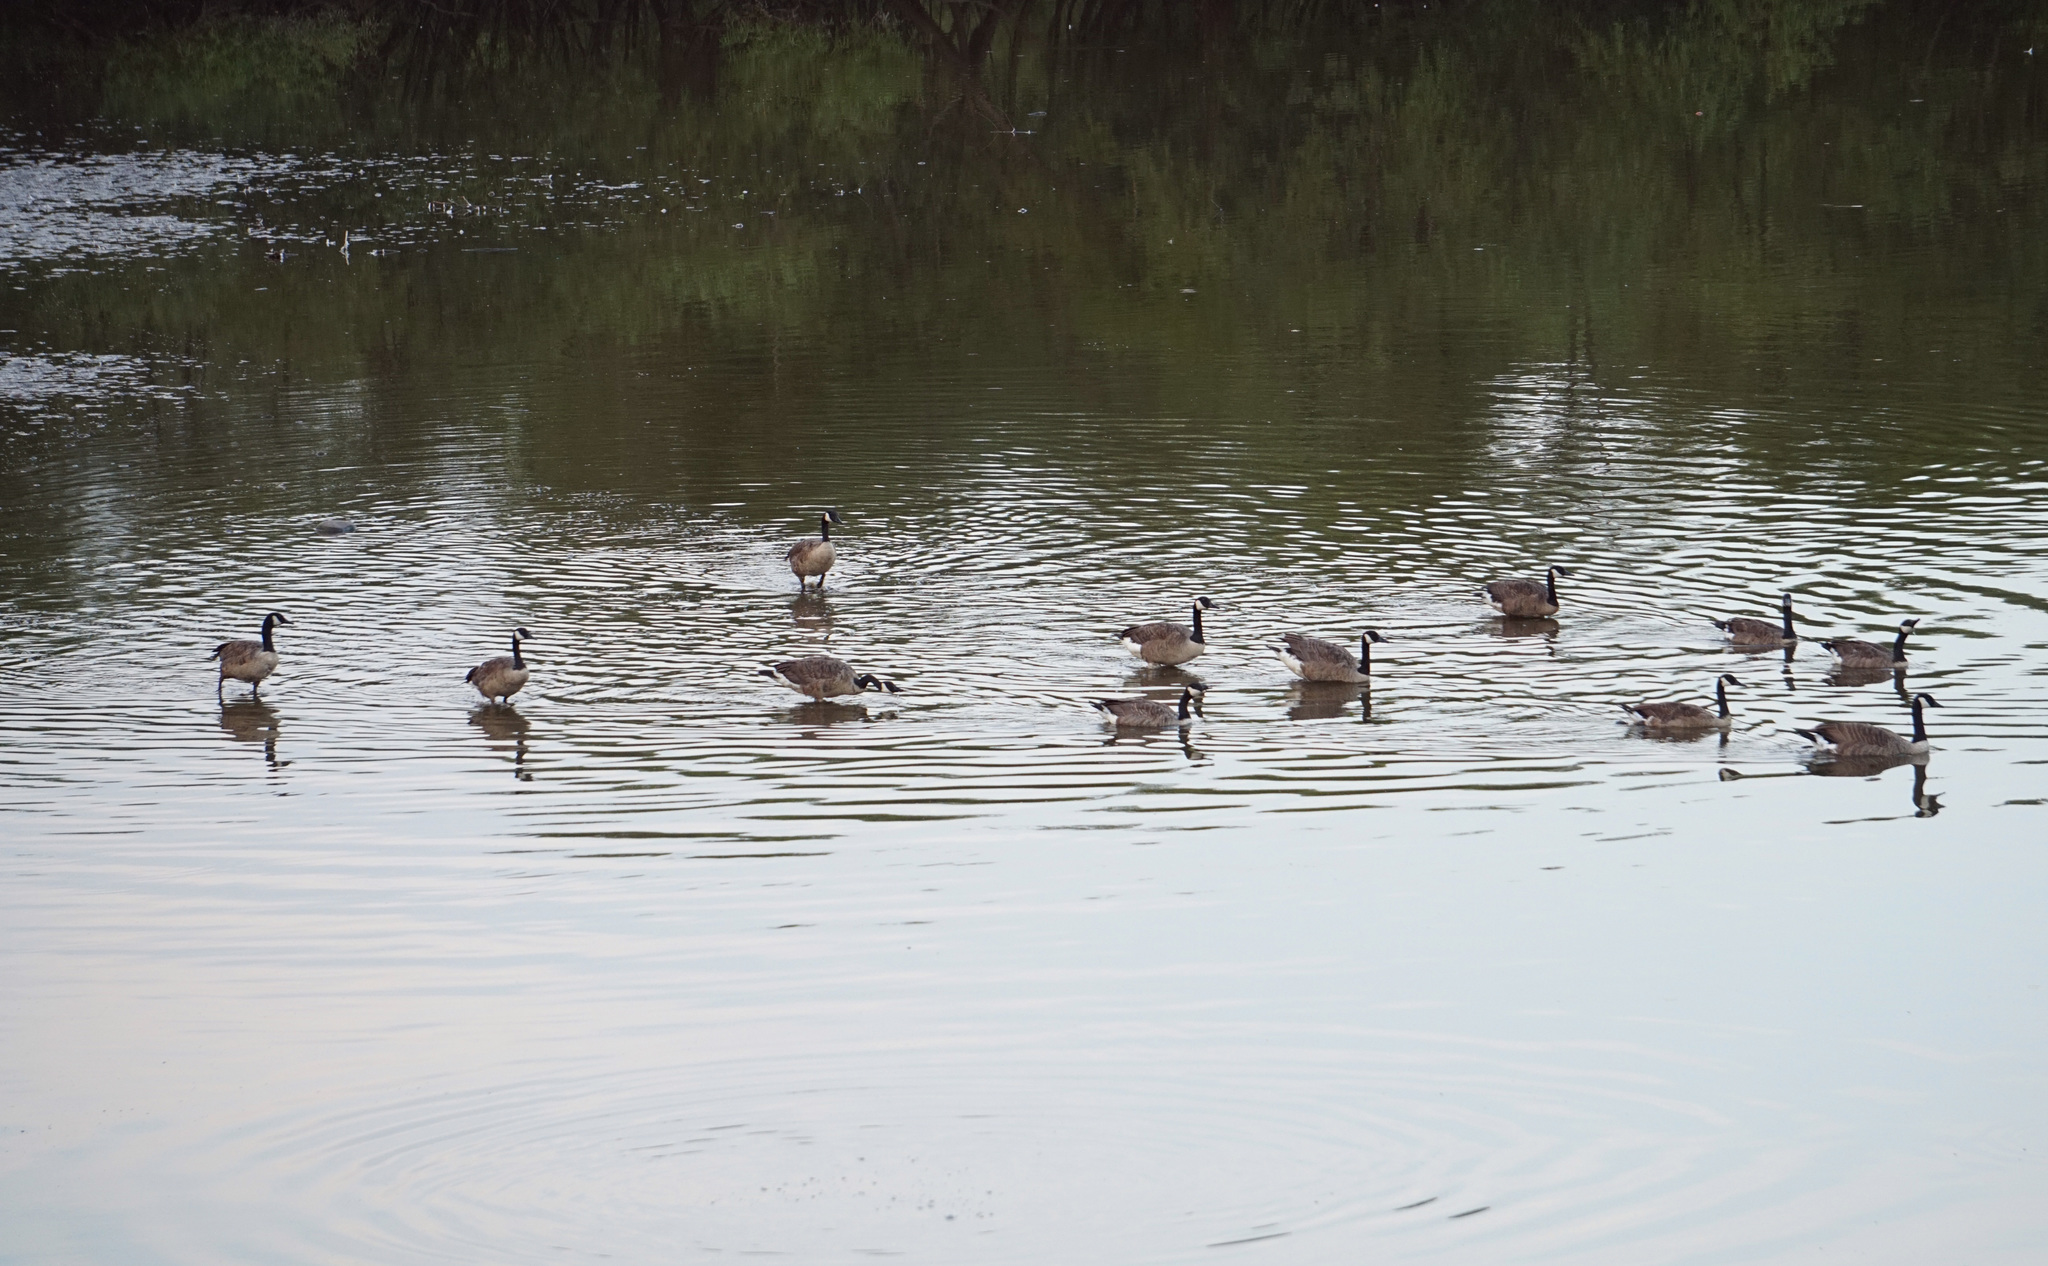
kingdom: Animalia
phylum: Chordata
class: Aves
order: Anseriformes
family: Anatidae
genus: Branta
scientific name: Branta canadensis
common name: Canada goose
